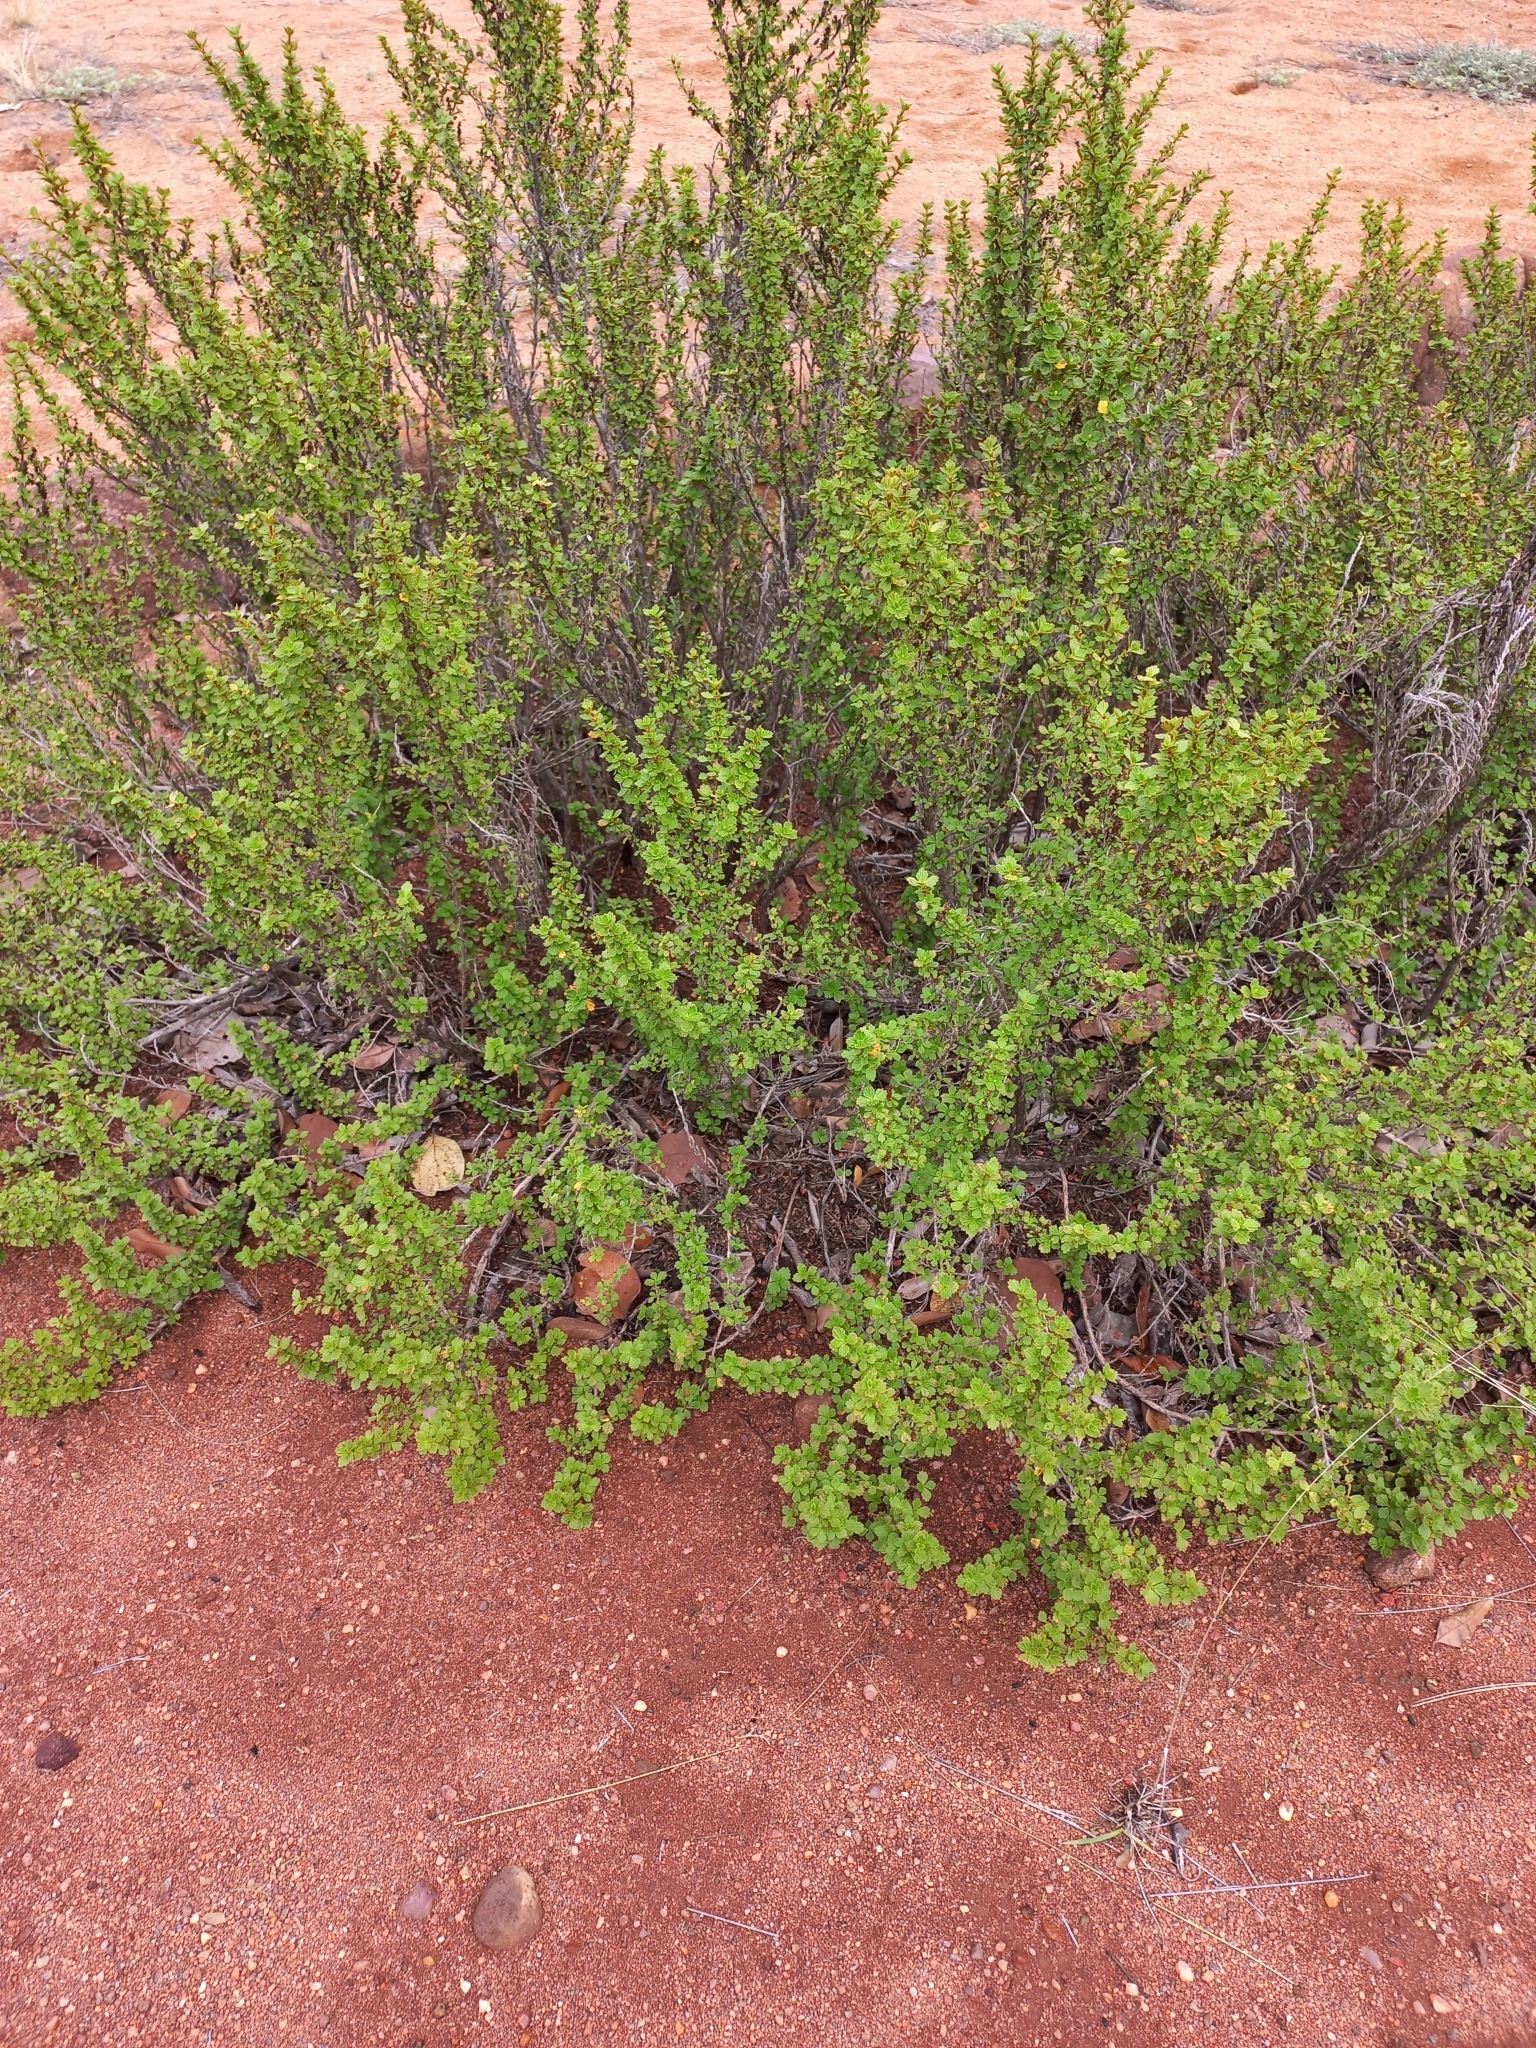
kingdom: Plantae
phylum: Tracheophyta
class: Magnoliopsida
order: Gunnerales
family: Myrothamnaceae
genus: Myrothamnus
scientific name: Myrothamnus flabellifolius
